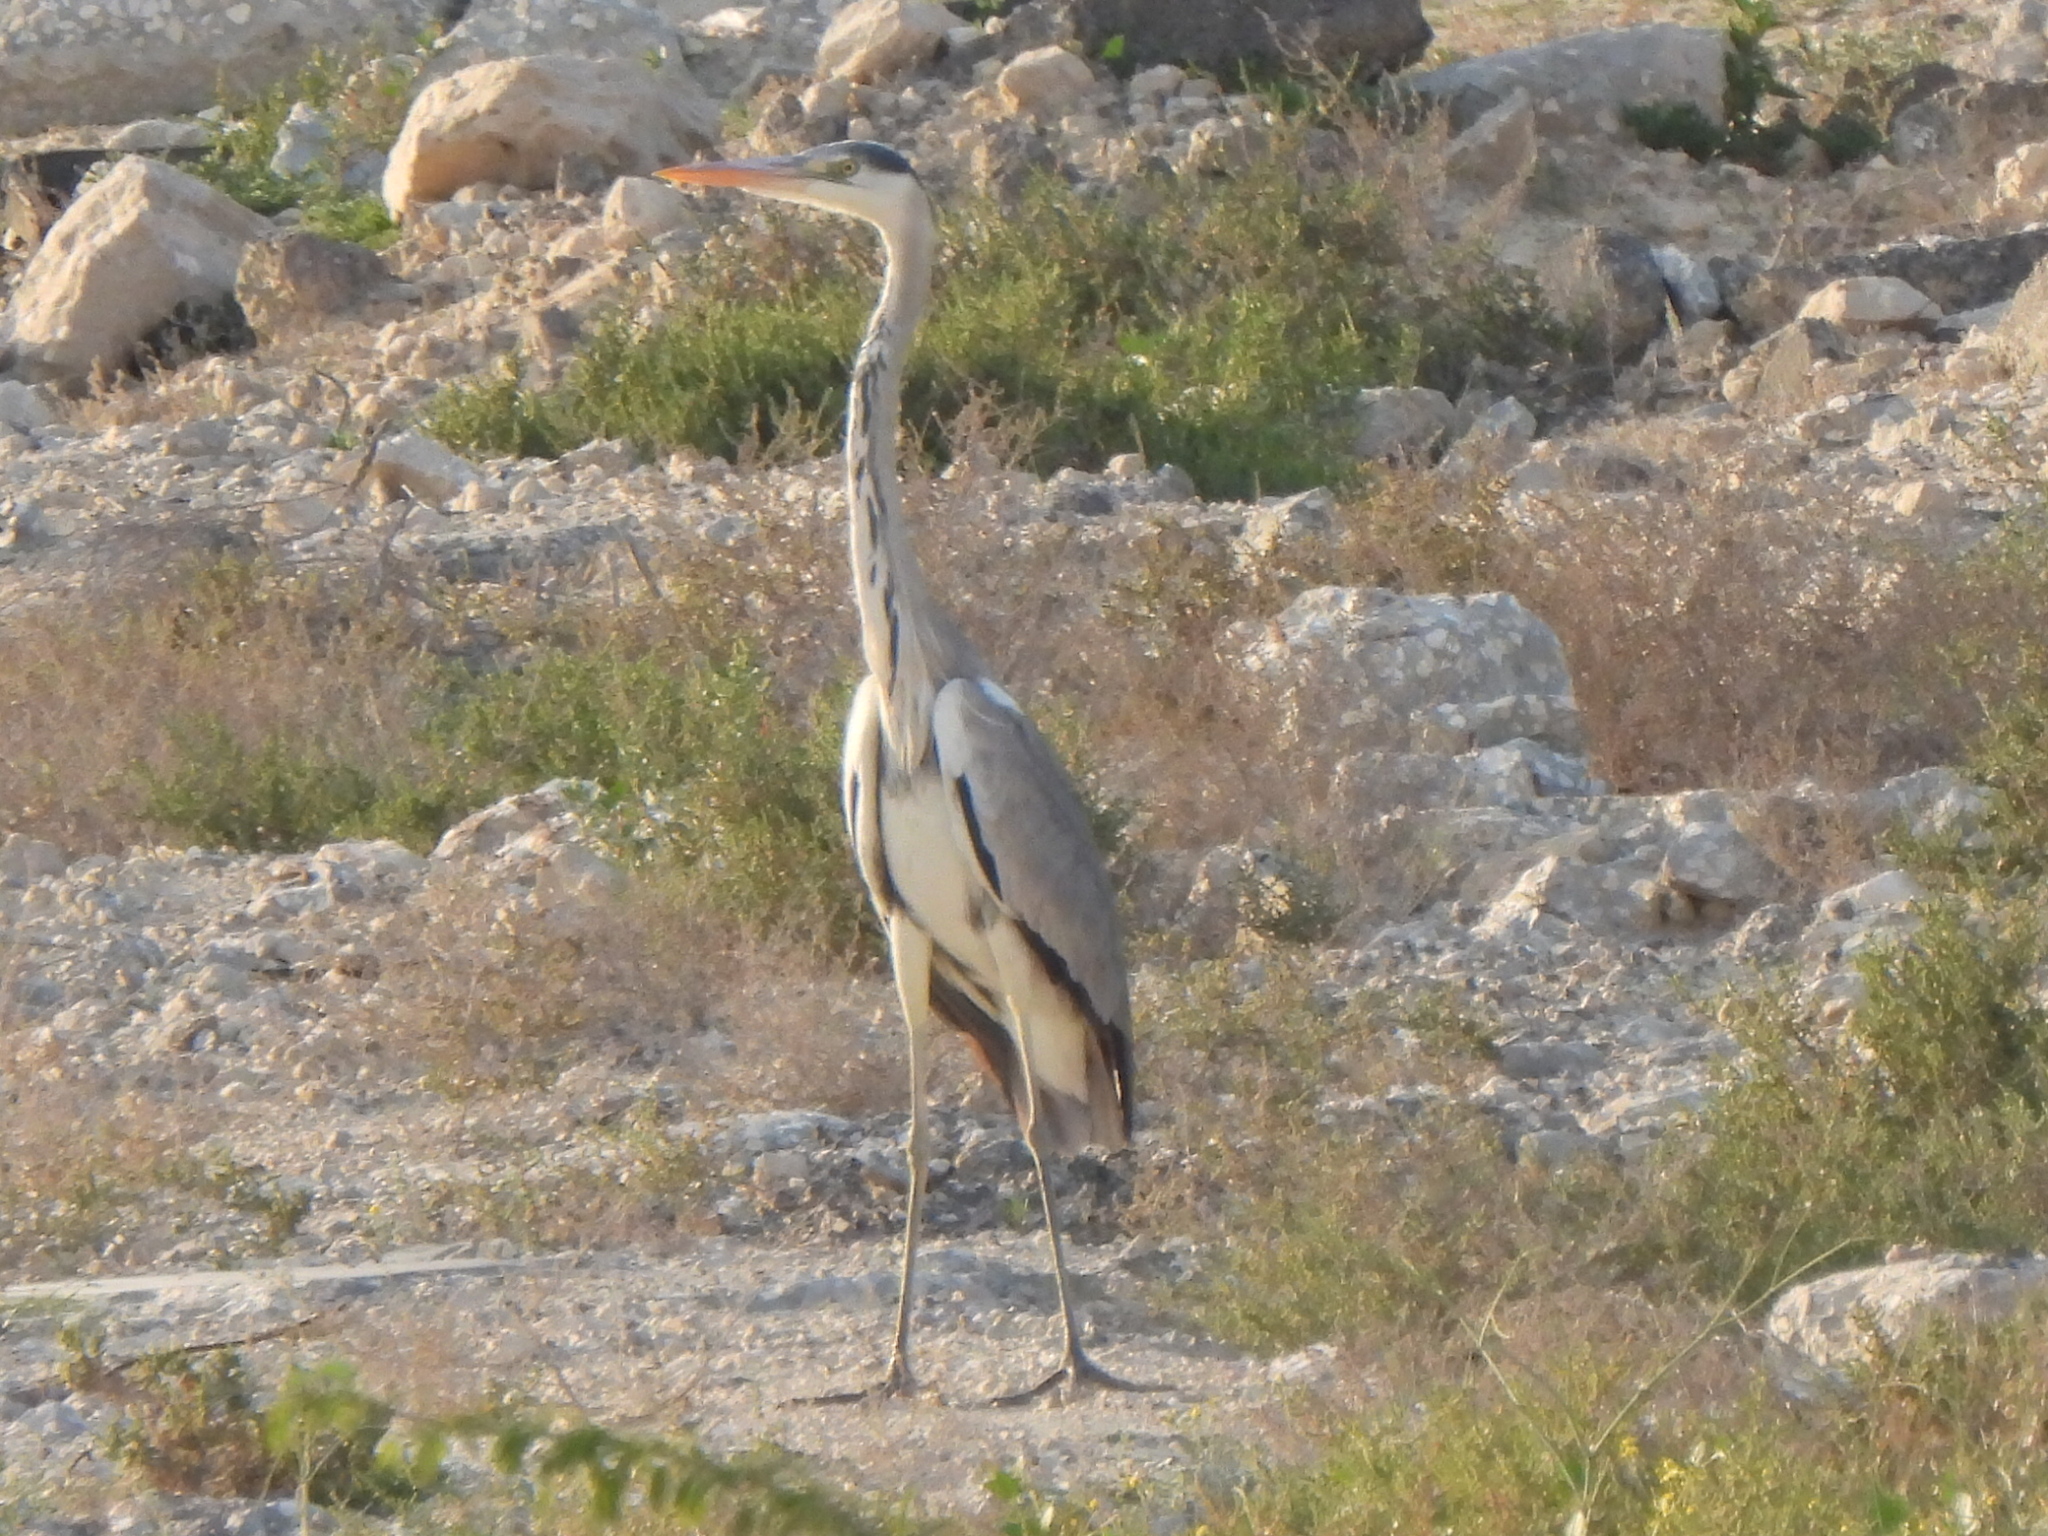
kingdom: Animalia
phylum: Chordata
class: Aves
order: Pelecaniformes
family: Ardeidae
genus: Ardea
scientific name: Ardea cinerea
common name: Grey heron
